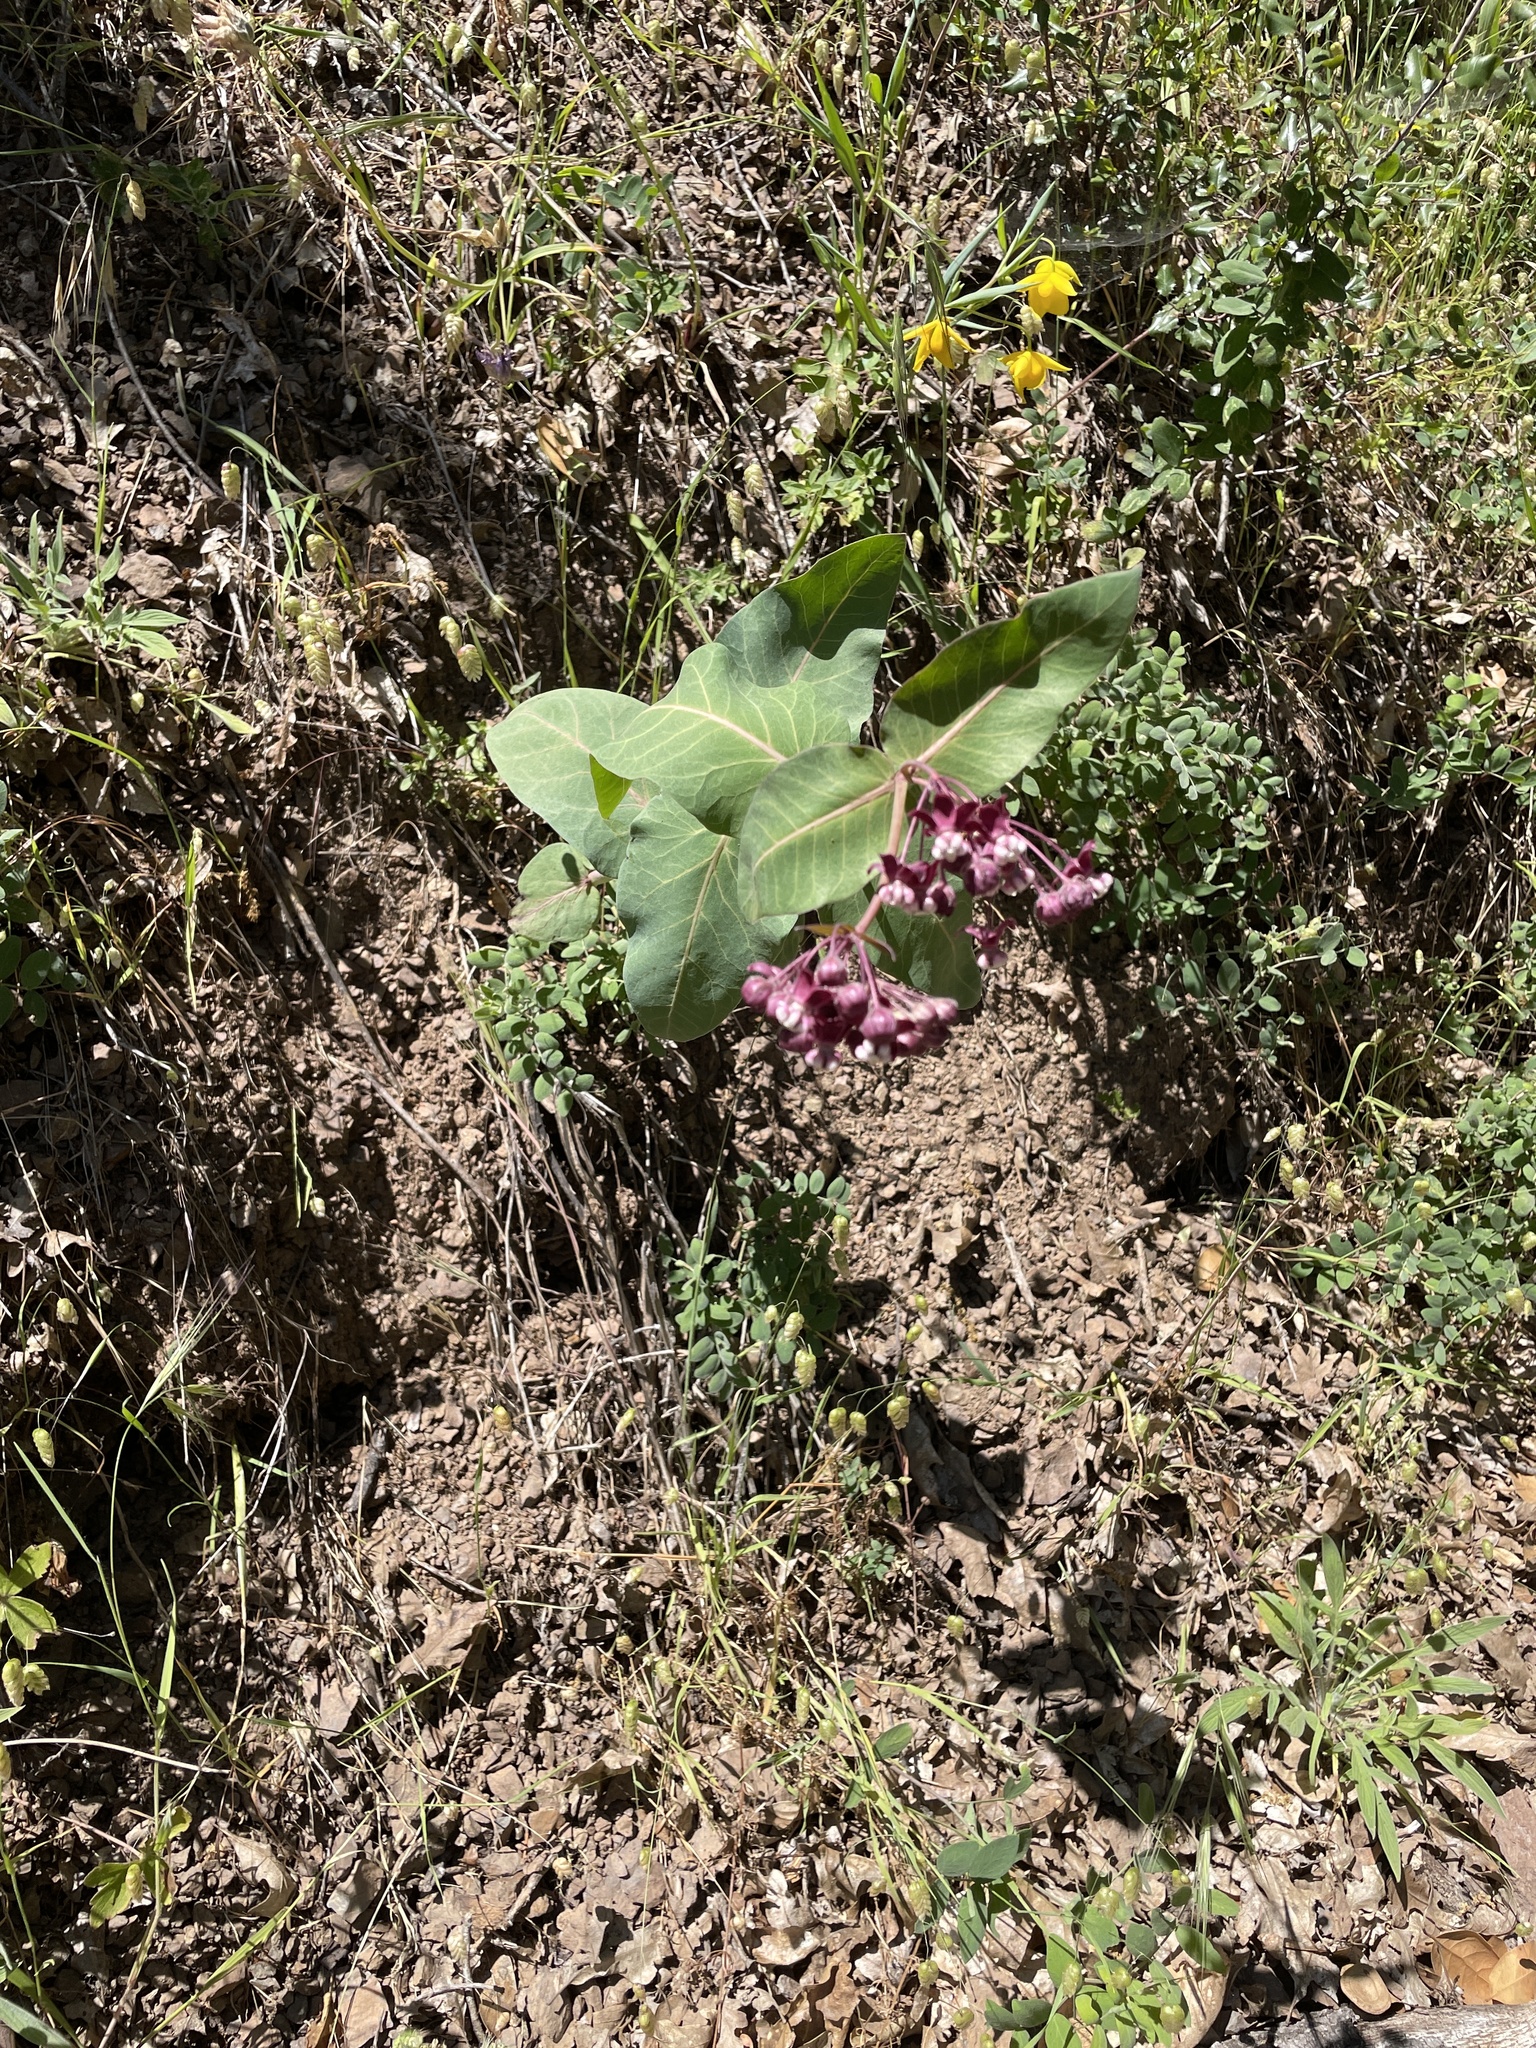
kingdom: Plantae
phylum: Tracheophyta
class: Magnoliopsida
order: Gentianales
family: Apocynaceae
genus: Asclepias
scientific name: Asclepias cordifolia
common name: Purple milkweed
